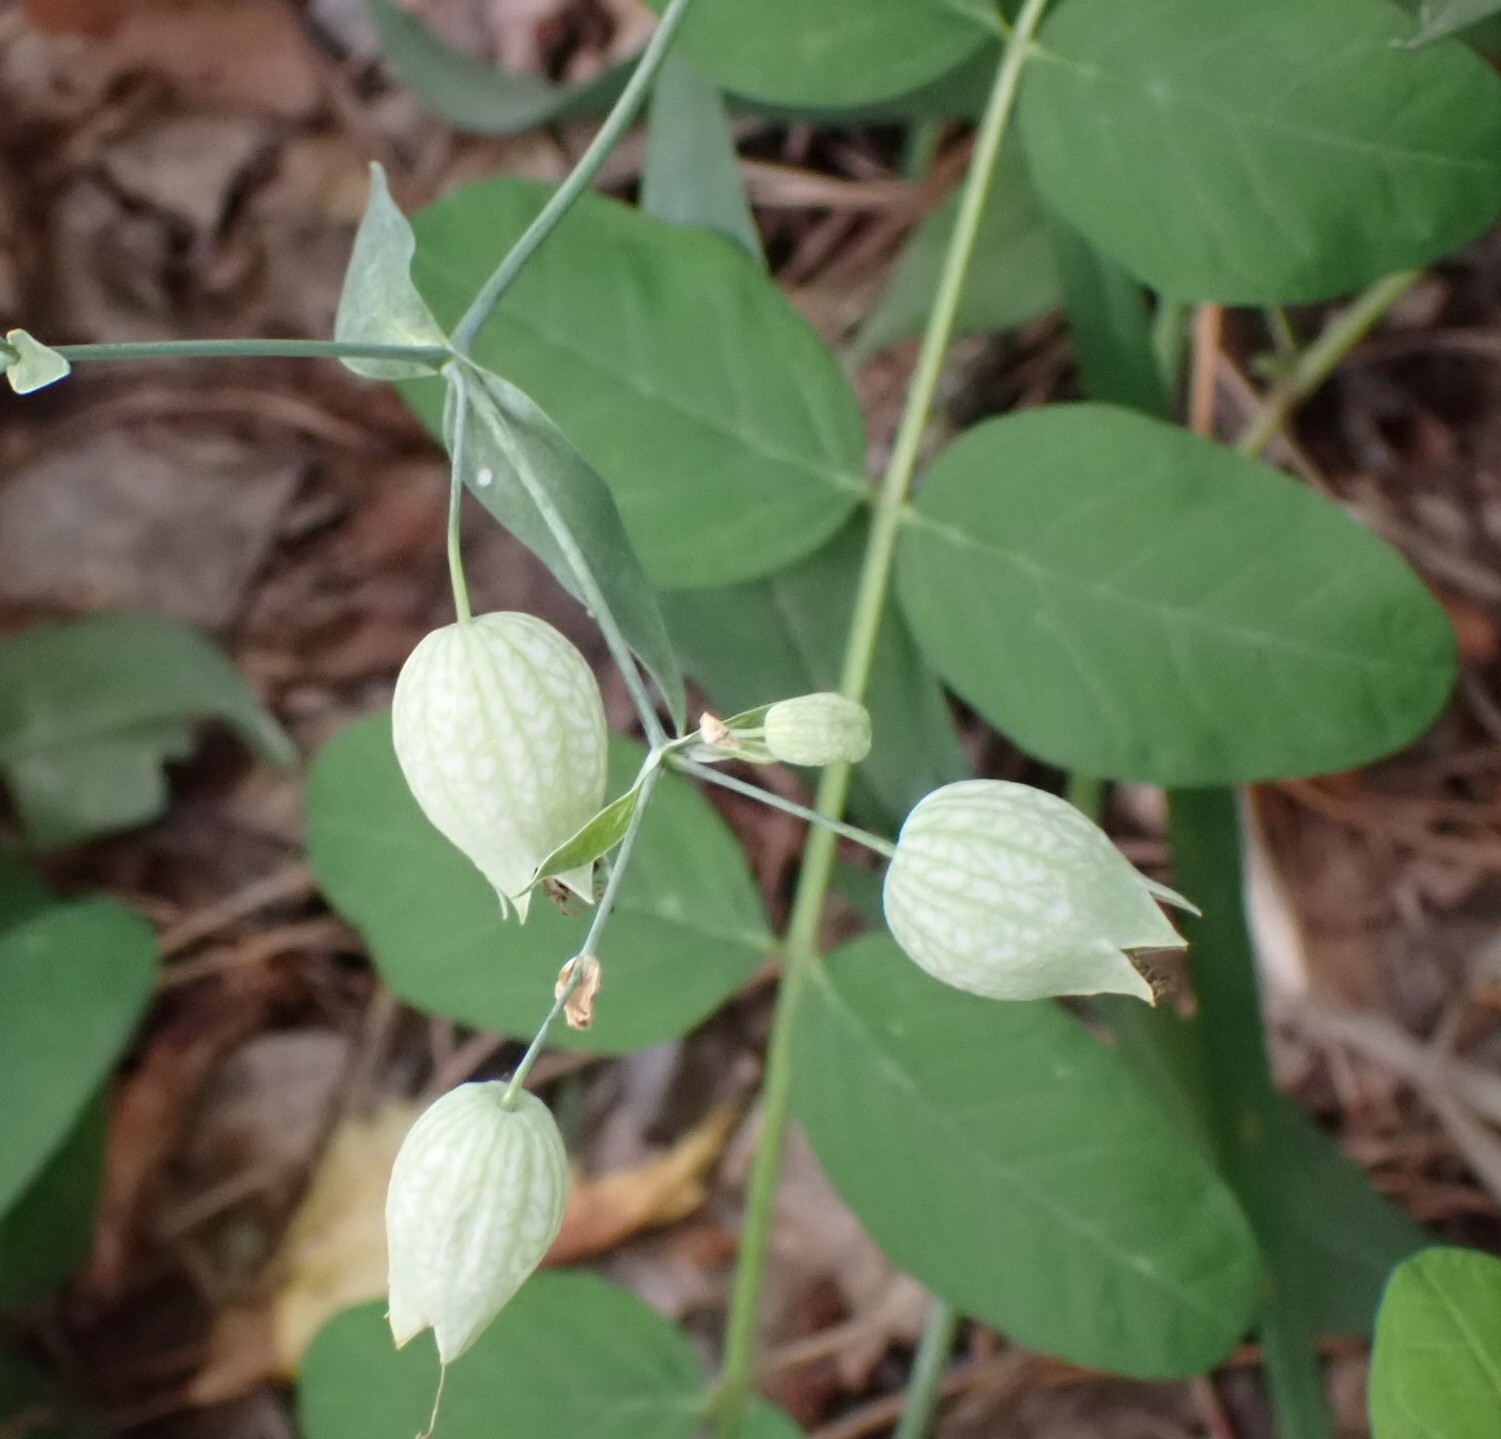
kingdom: Plantae
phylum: Tracheophyta
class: Magnoliopsida
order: Caryophyllales
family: Caryophyllaceae
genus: Silene
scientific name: Silene vulgaris
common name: Bladder campion
